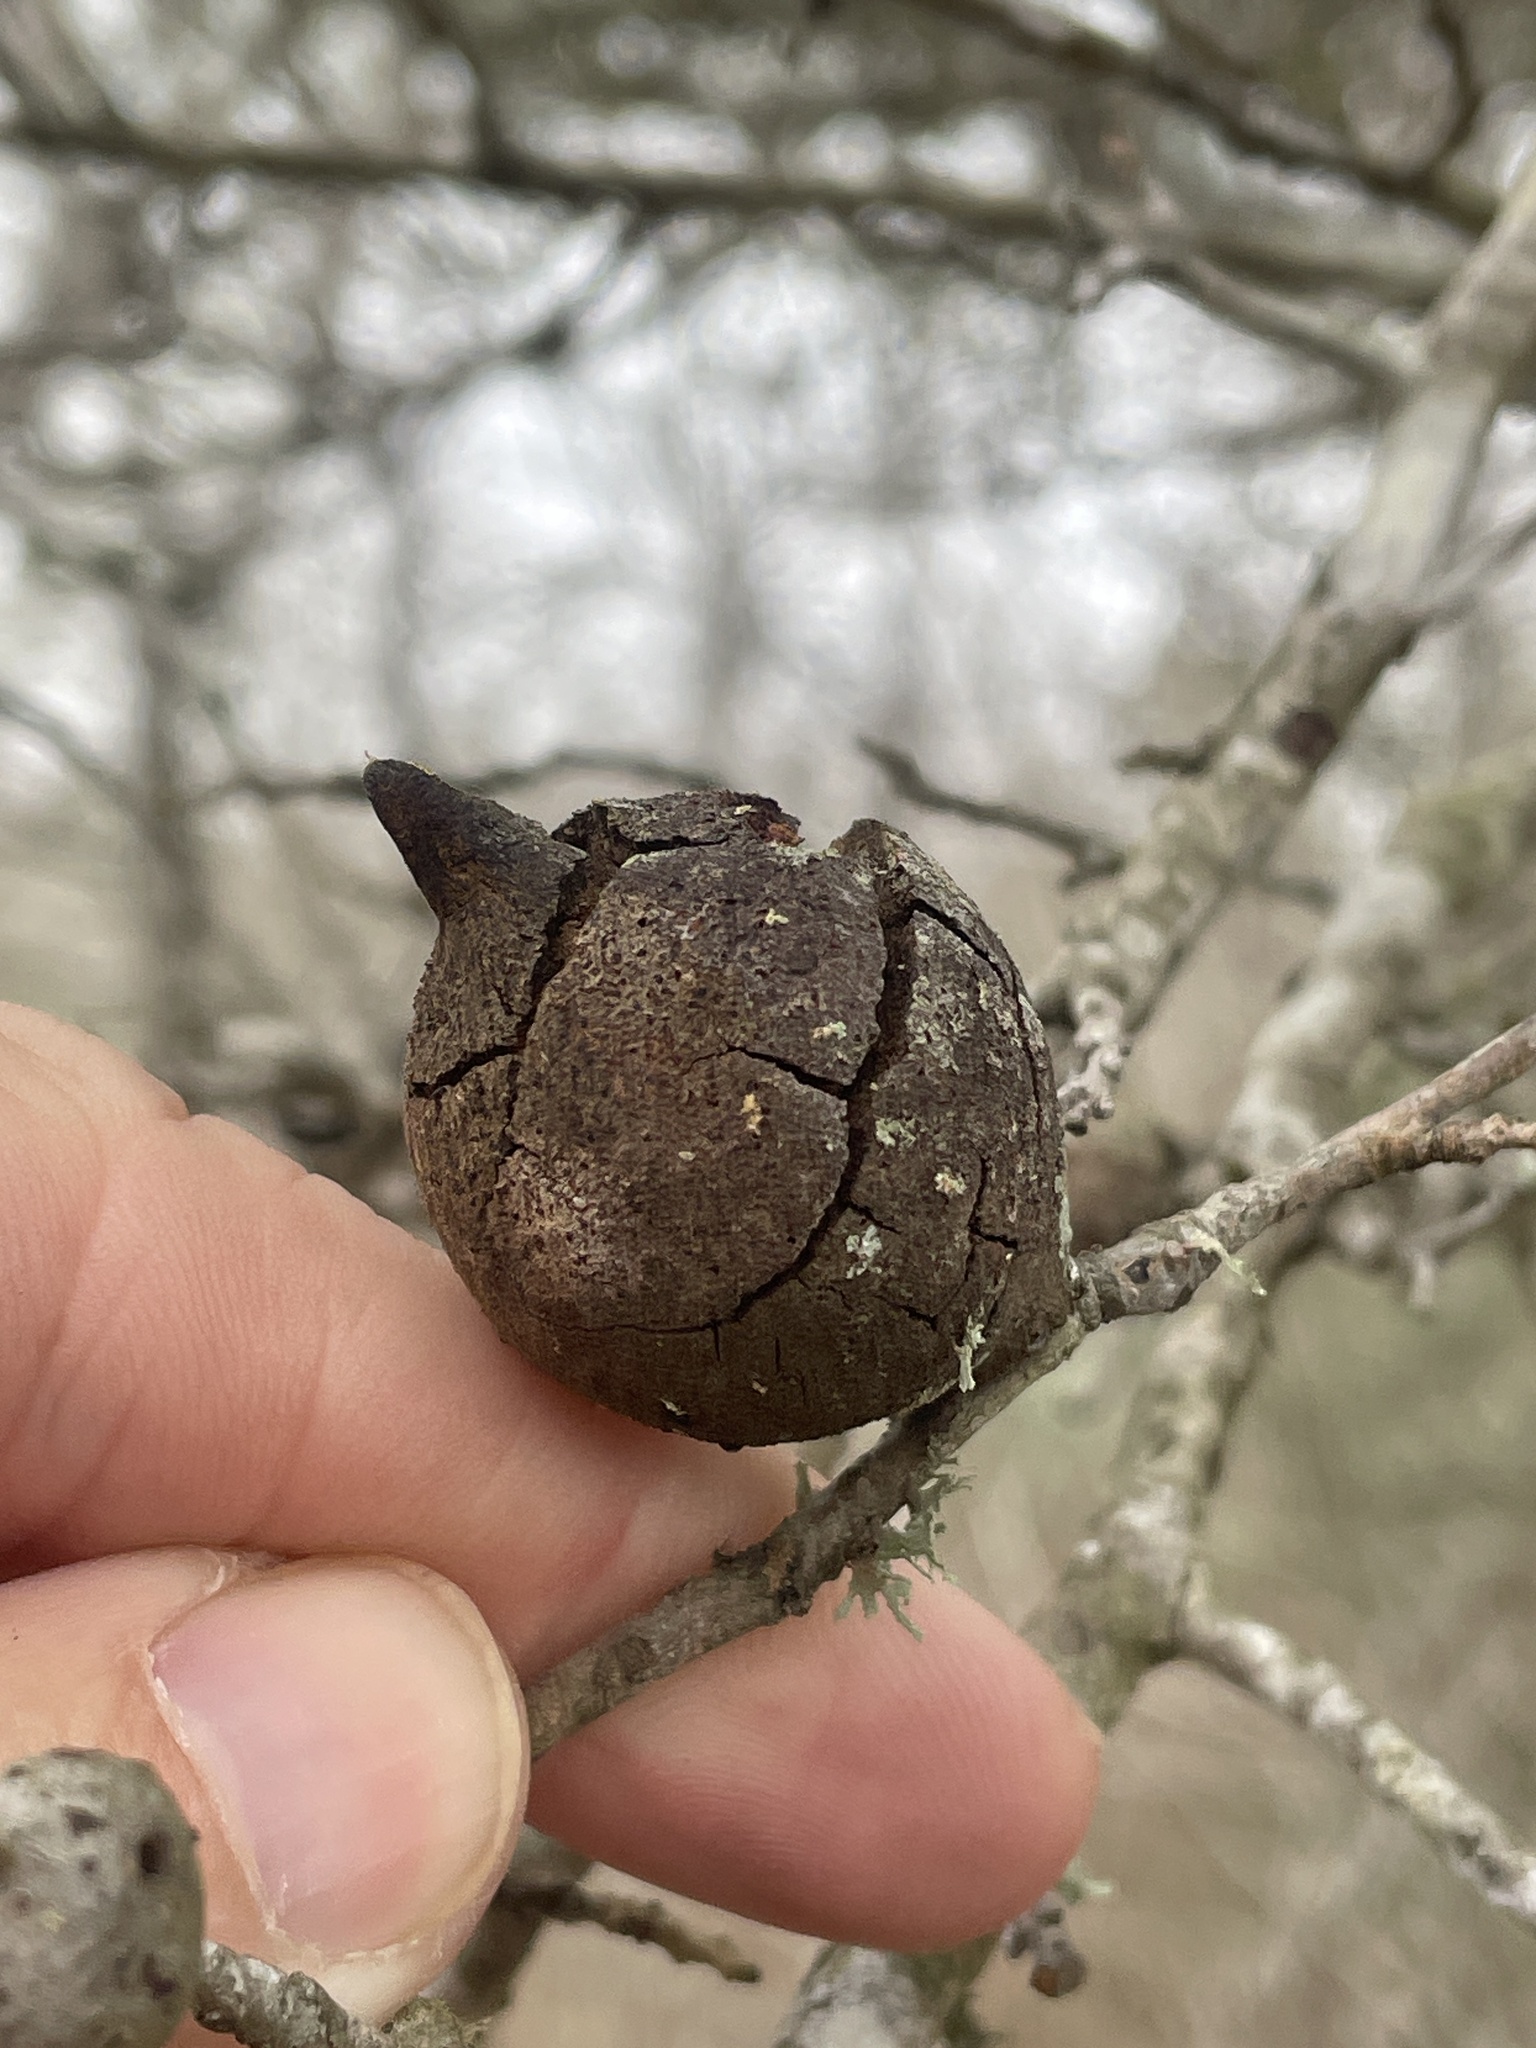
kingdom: Animalia
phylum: Arthropoda
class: Insecta
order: Hymenoptera
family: Cynipidae
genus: Disholcaspis
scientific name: Disholcaspis
